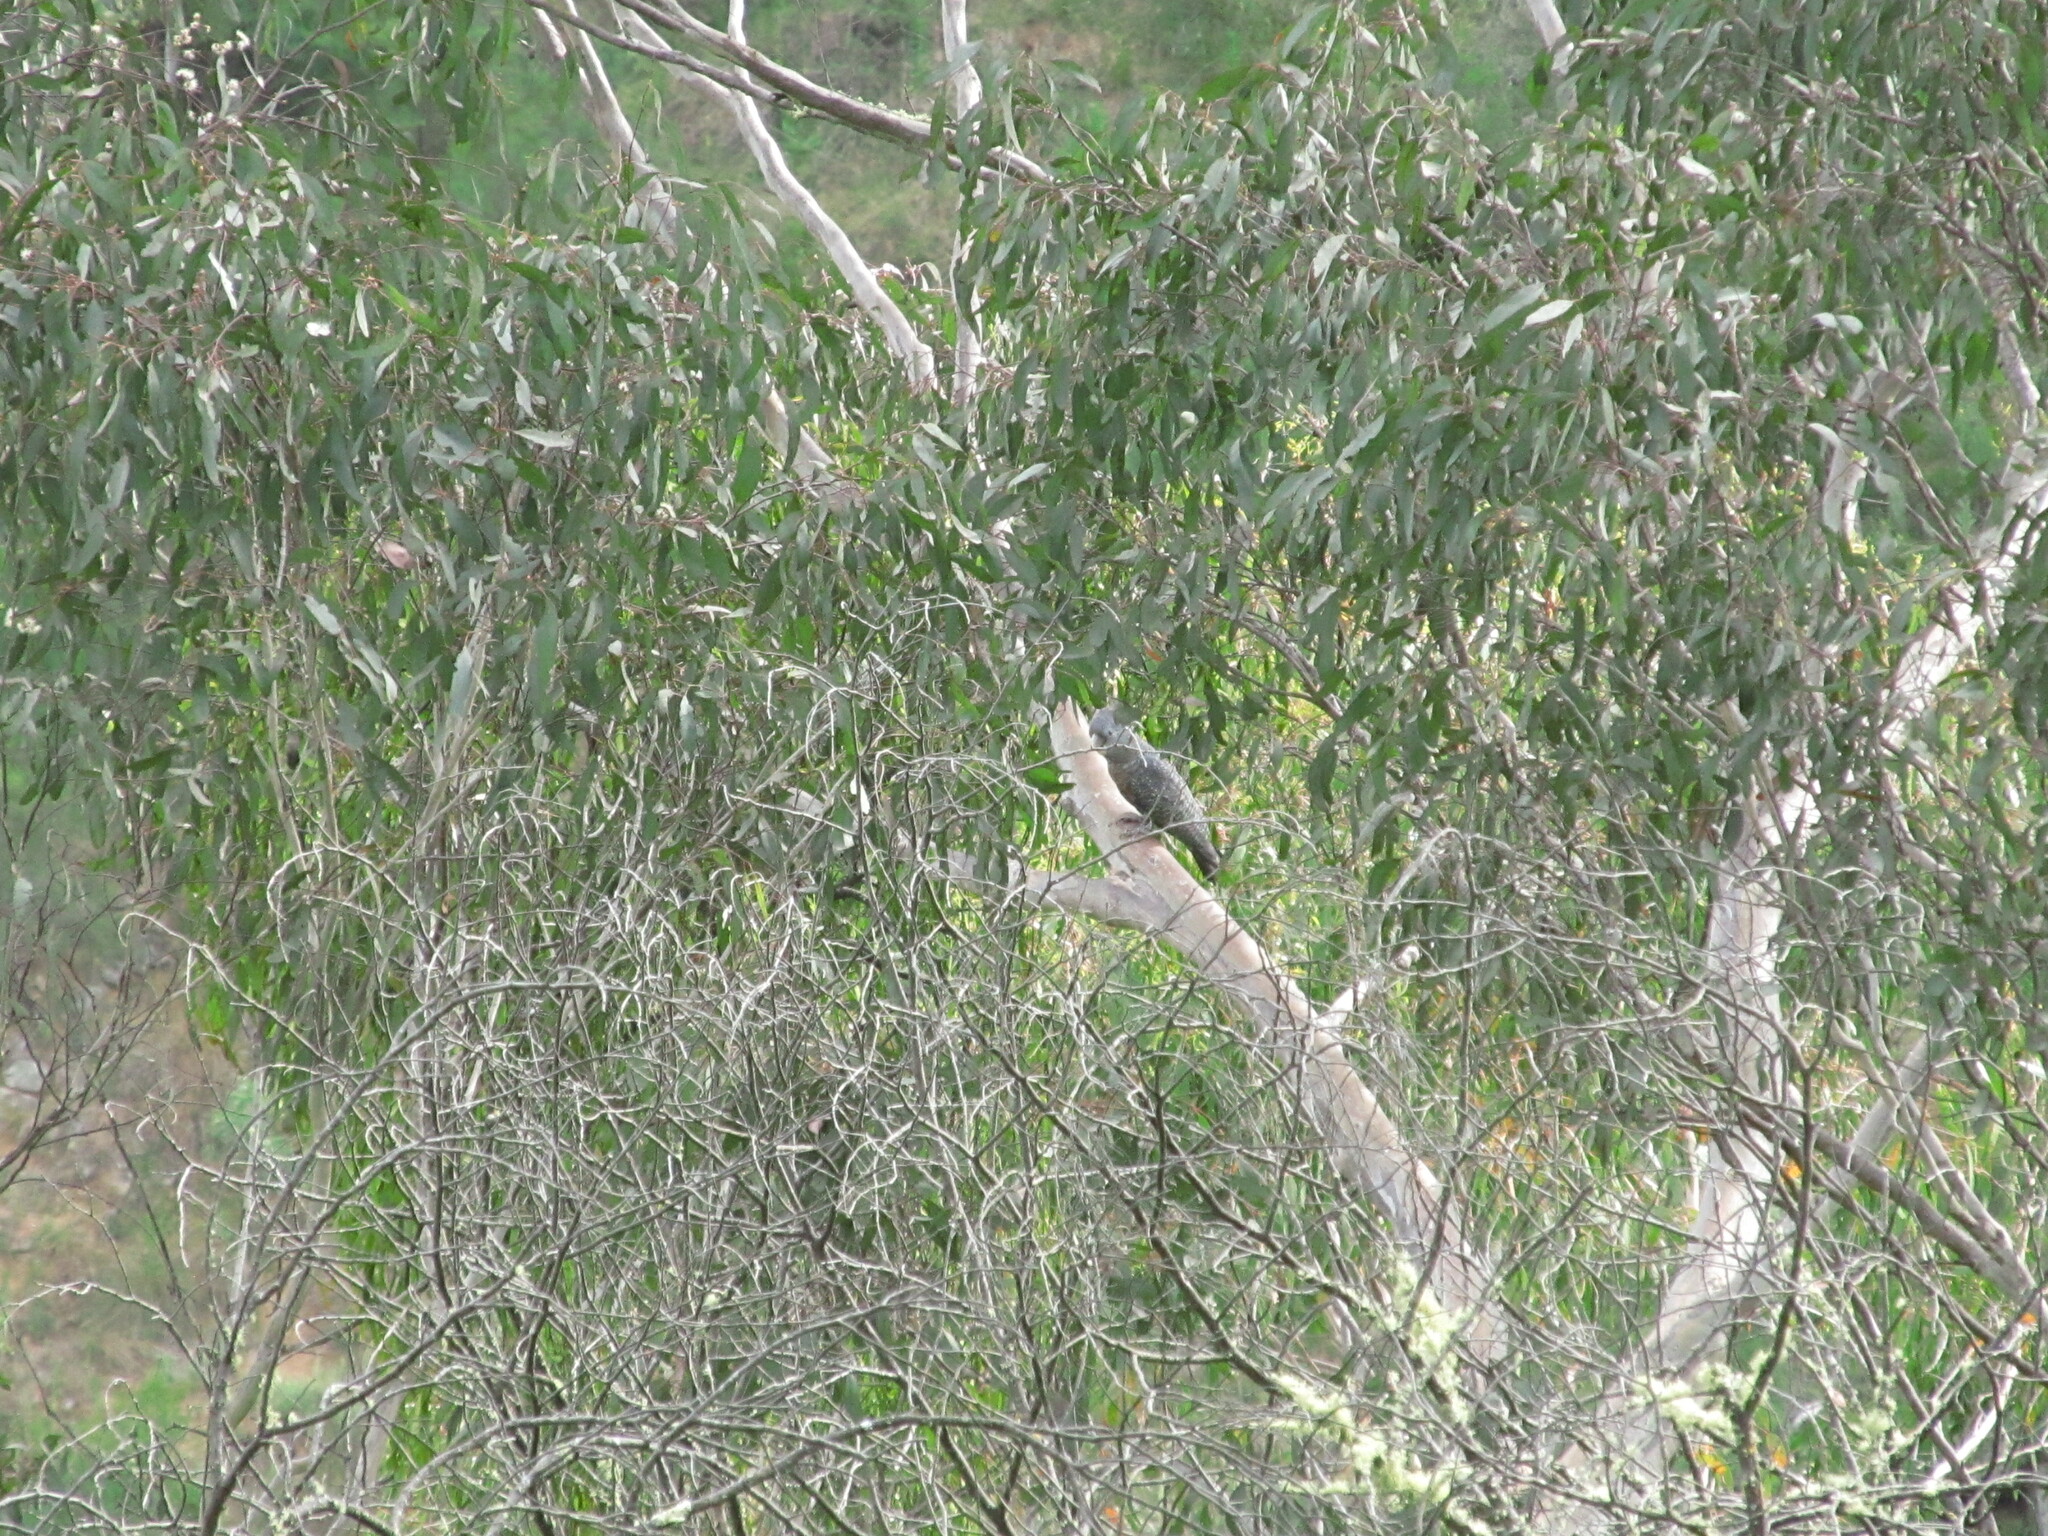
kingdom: Animalia
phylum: Chordata
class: Aves
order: Psittaciformes
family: Psittacidae
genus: Callocephalon
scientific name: Callocephalon fimbriatum
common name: Gang-gang cockatoo
